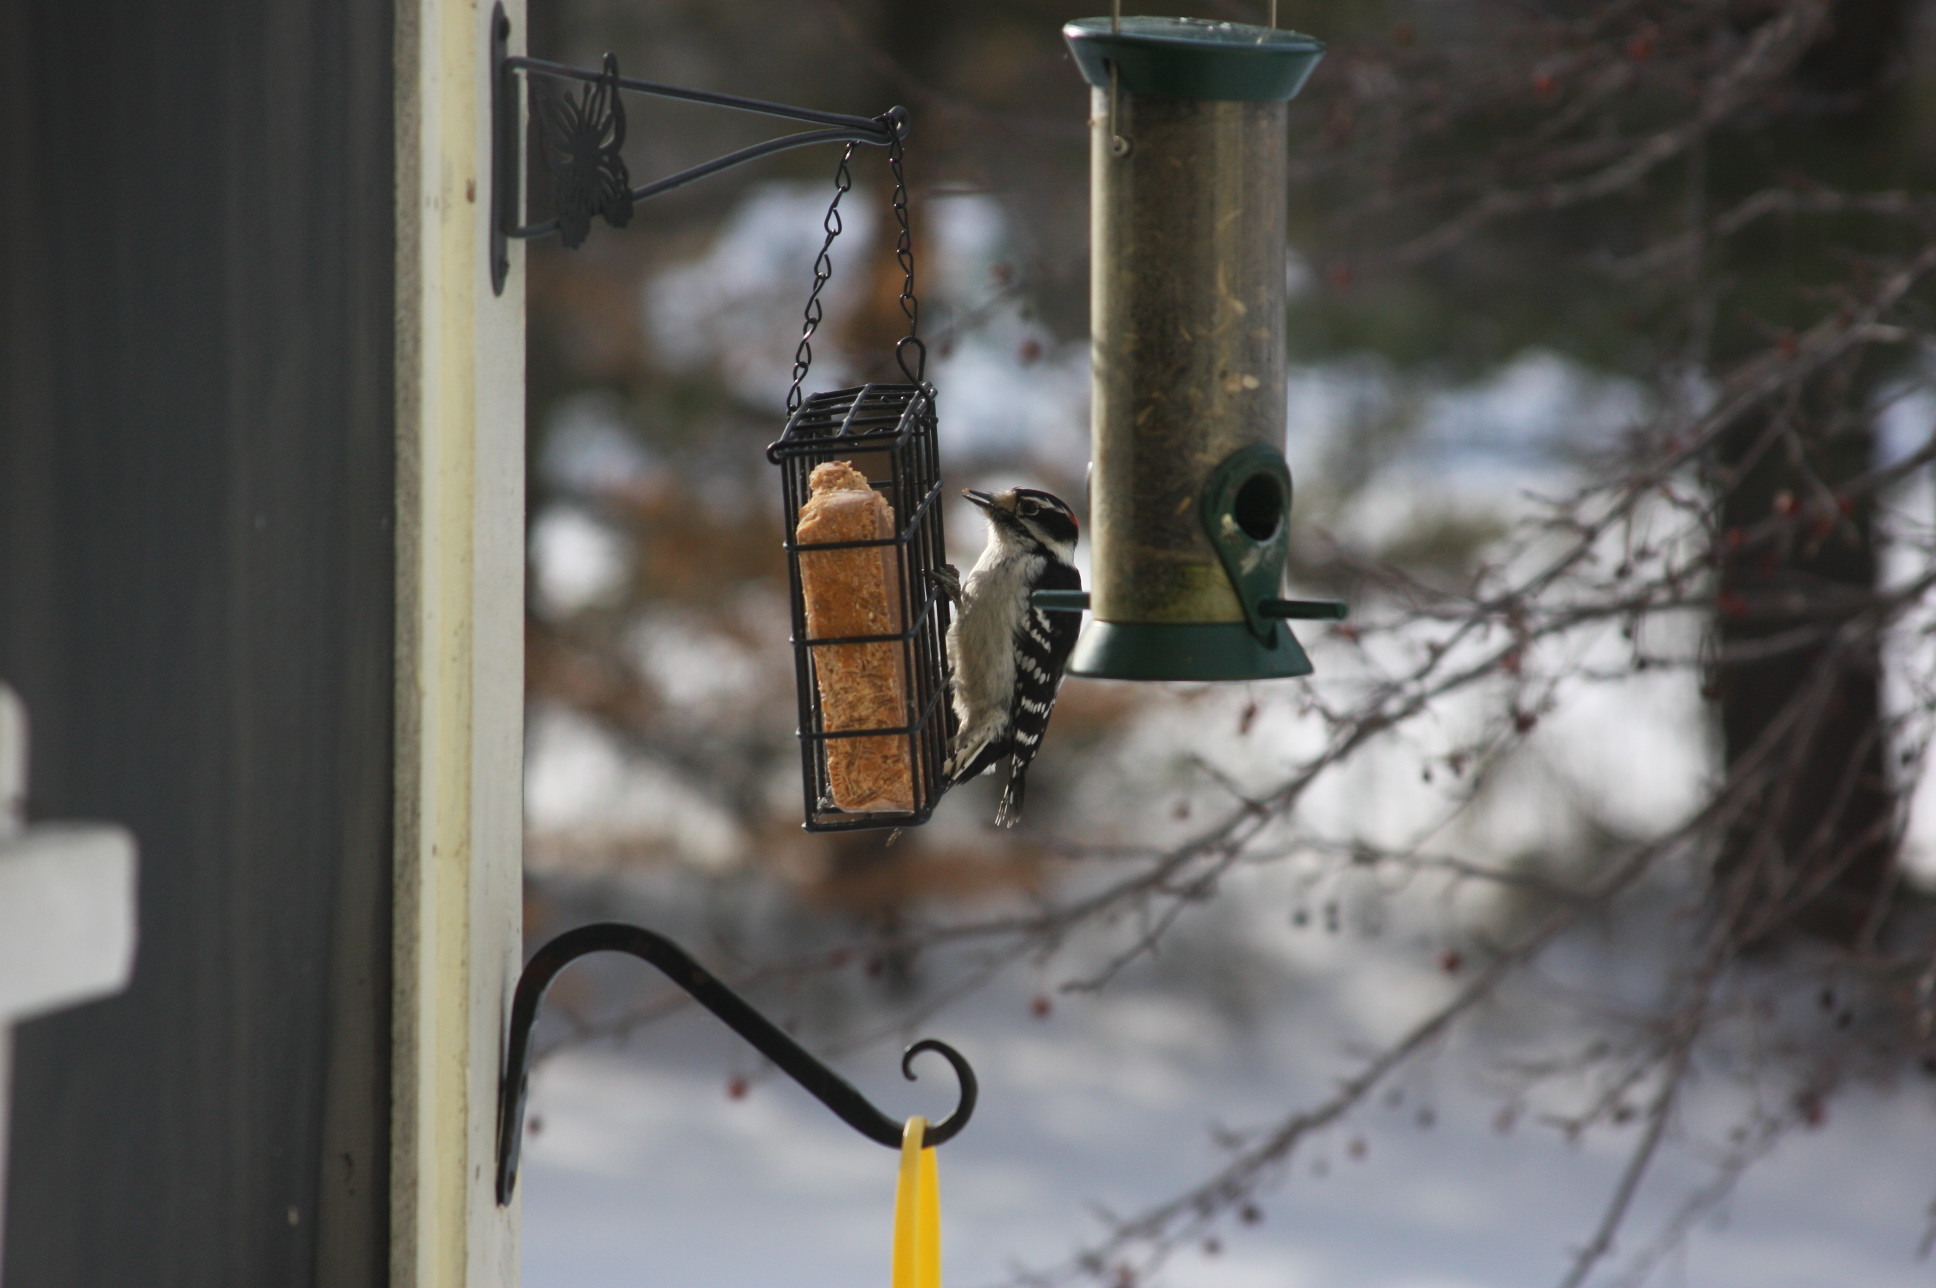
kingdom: Animalia
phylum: Chordata
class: Aves
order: Piciformes
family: Picidae
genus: Dryobates
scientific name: Dryobates pubescens
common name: Downy woodpecker
